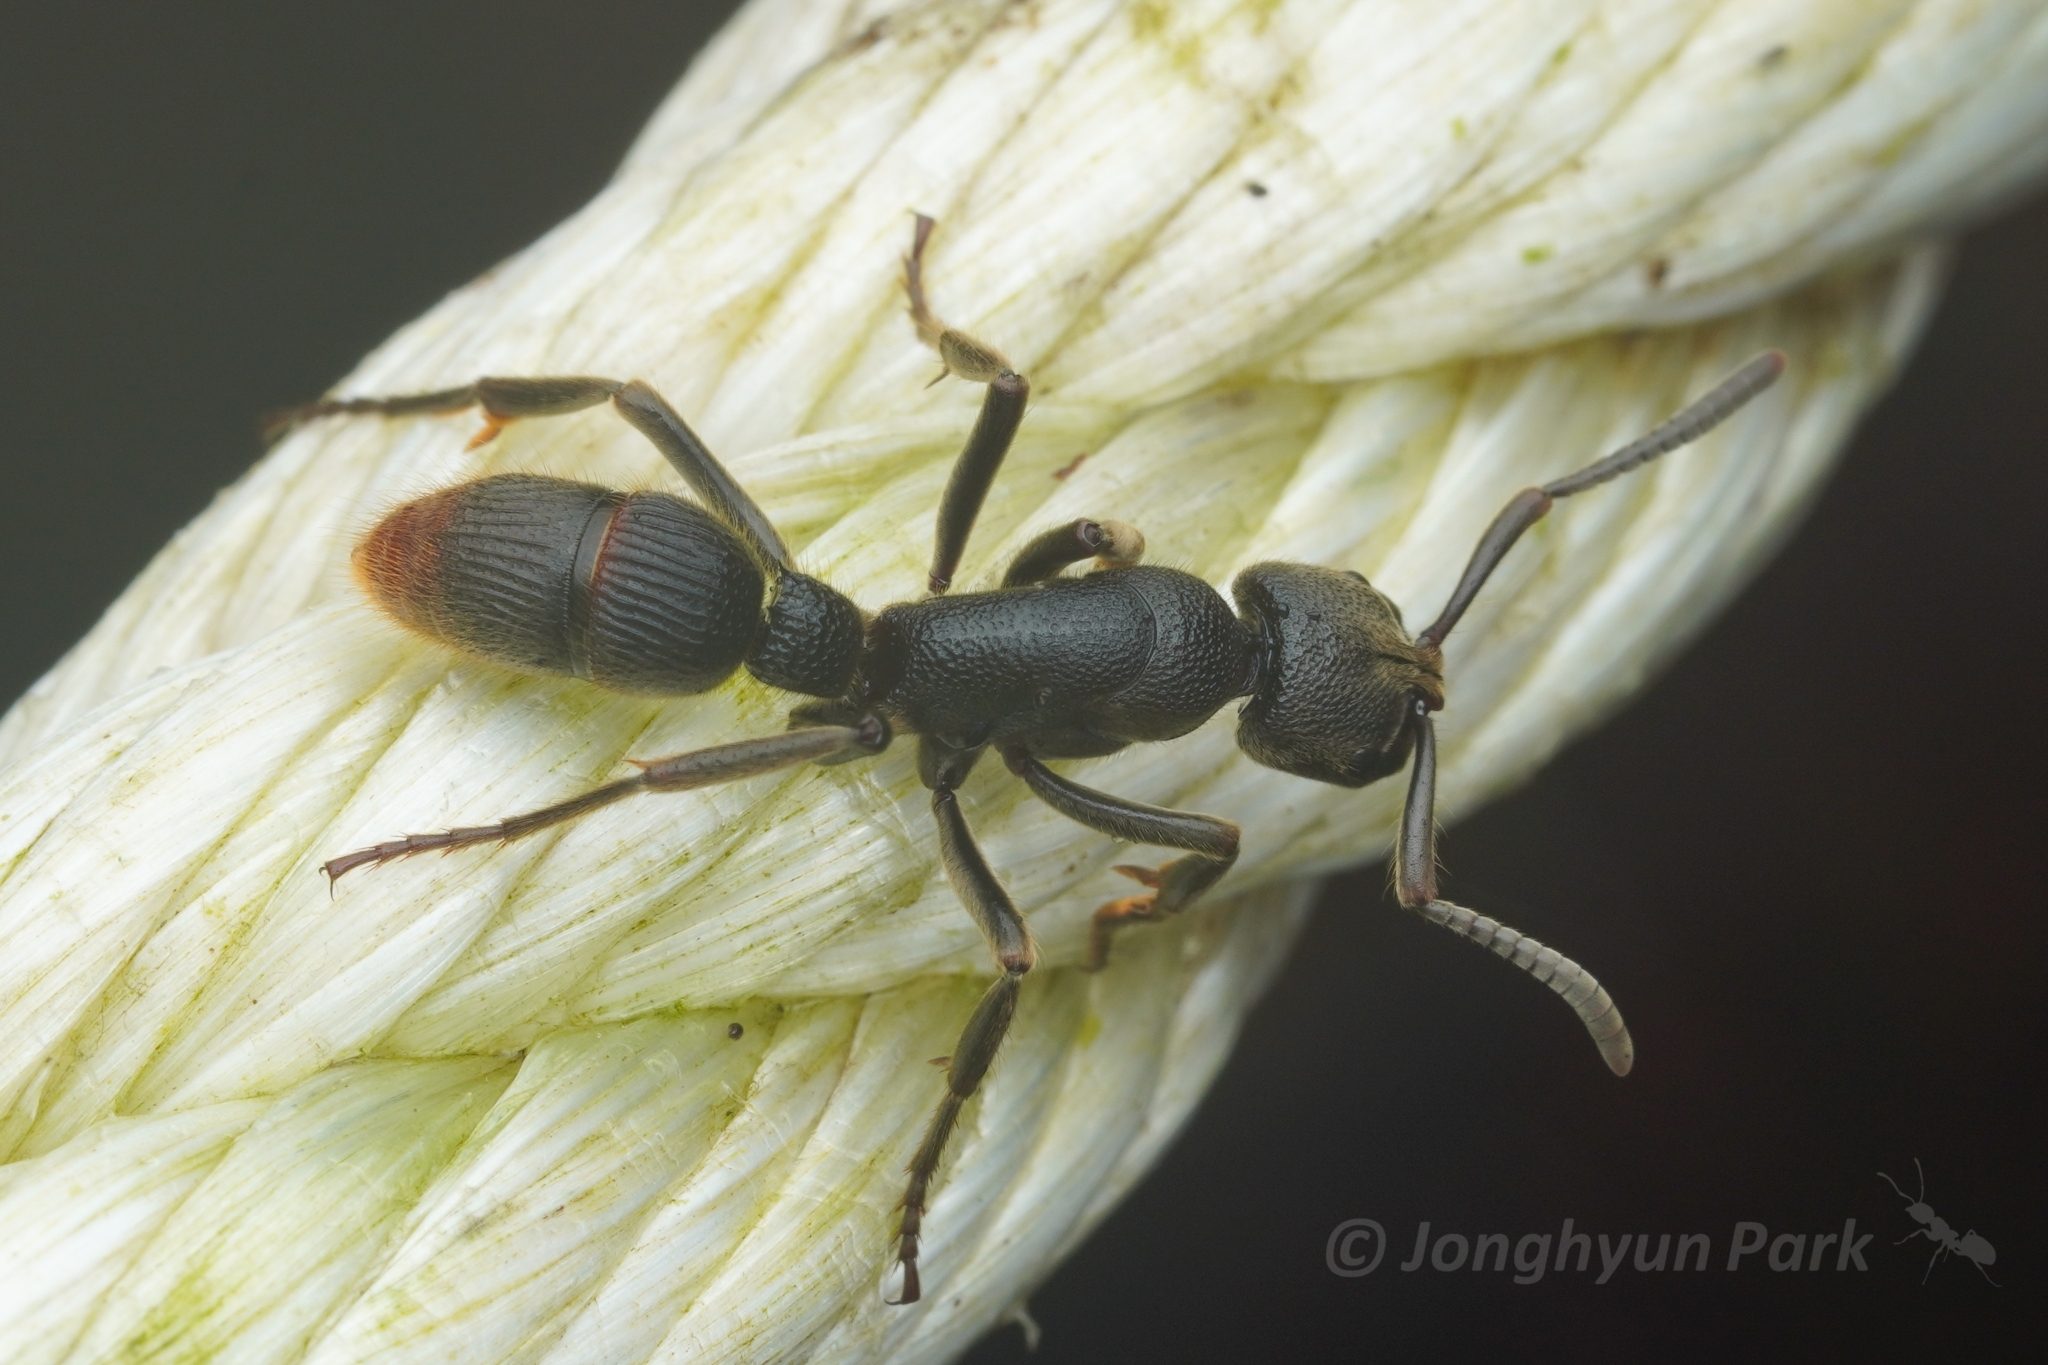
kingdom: Animalia
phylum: Arthropoda
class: Insecta
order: Hymenoptera
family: Formicidae
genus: Pseudoneoponera
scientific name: Pseudoneoponera
